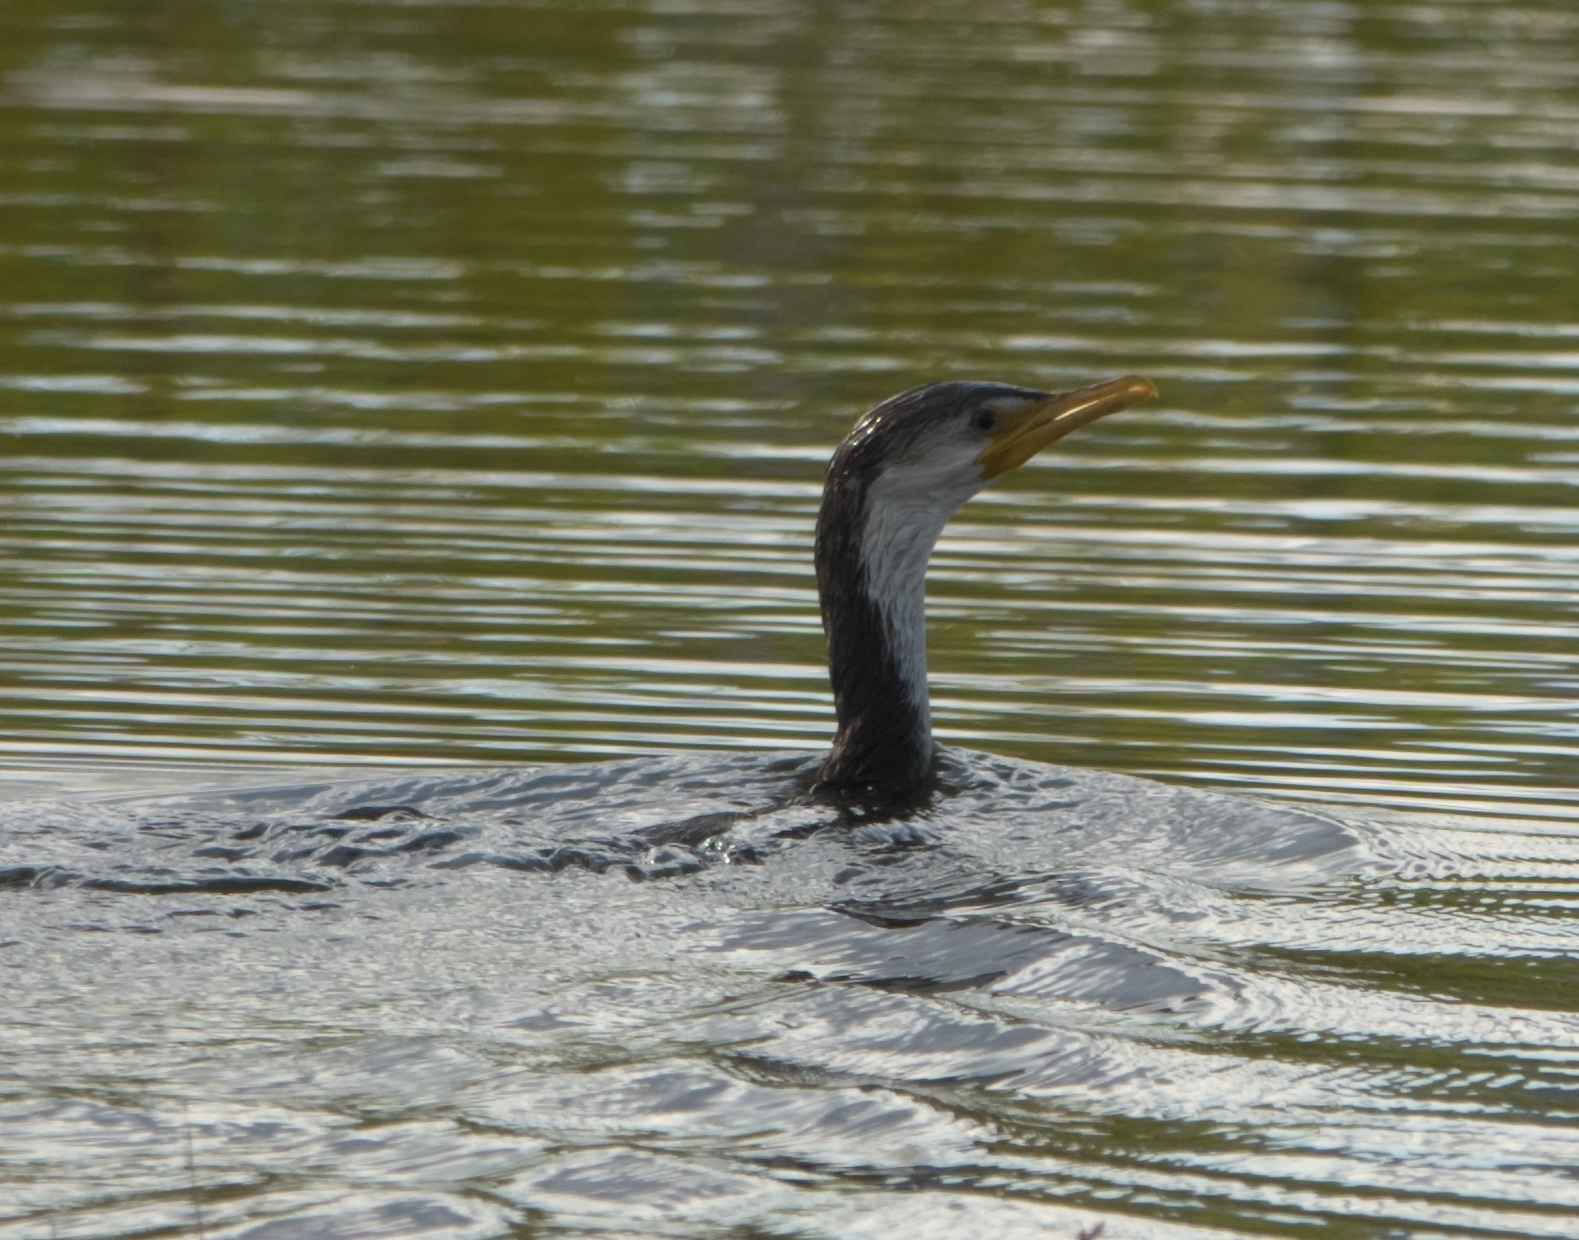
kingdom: Animalia
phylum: Chordata
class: Aves
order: Suliformes
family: Phalacrocoracidae
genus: Microcarbo
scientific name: Microcarbo melanoleucos
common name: Little pied cormorant
